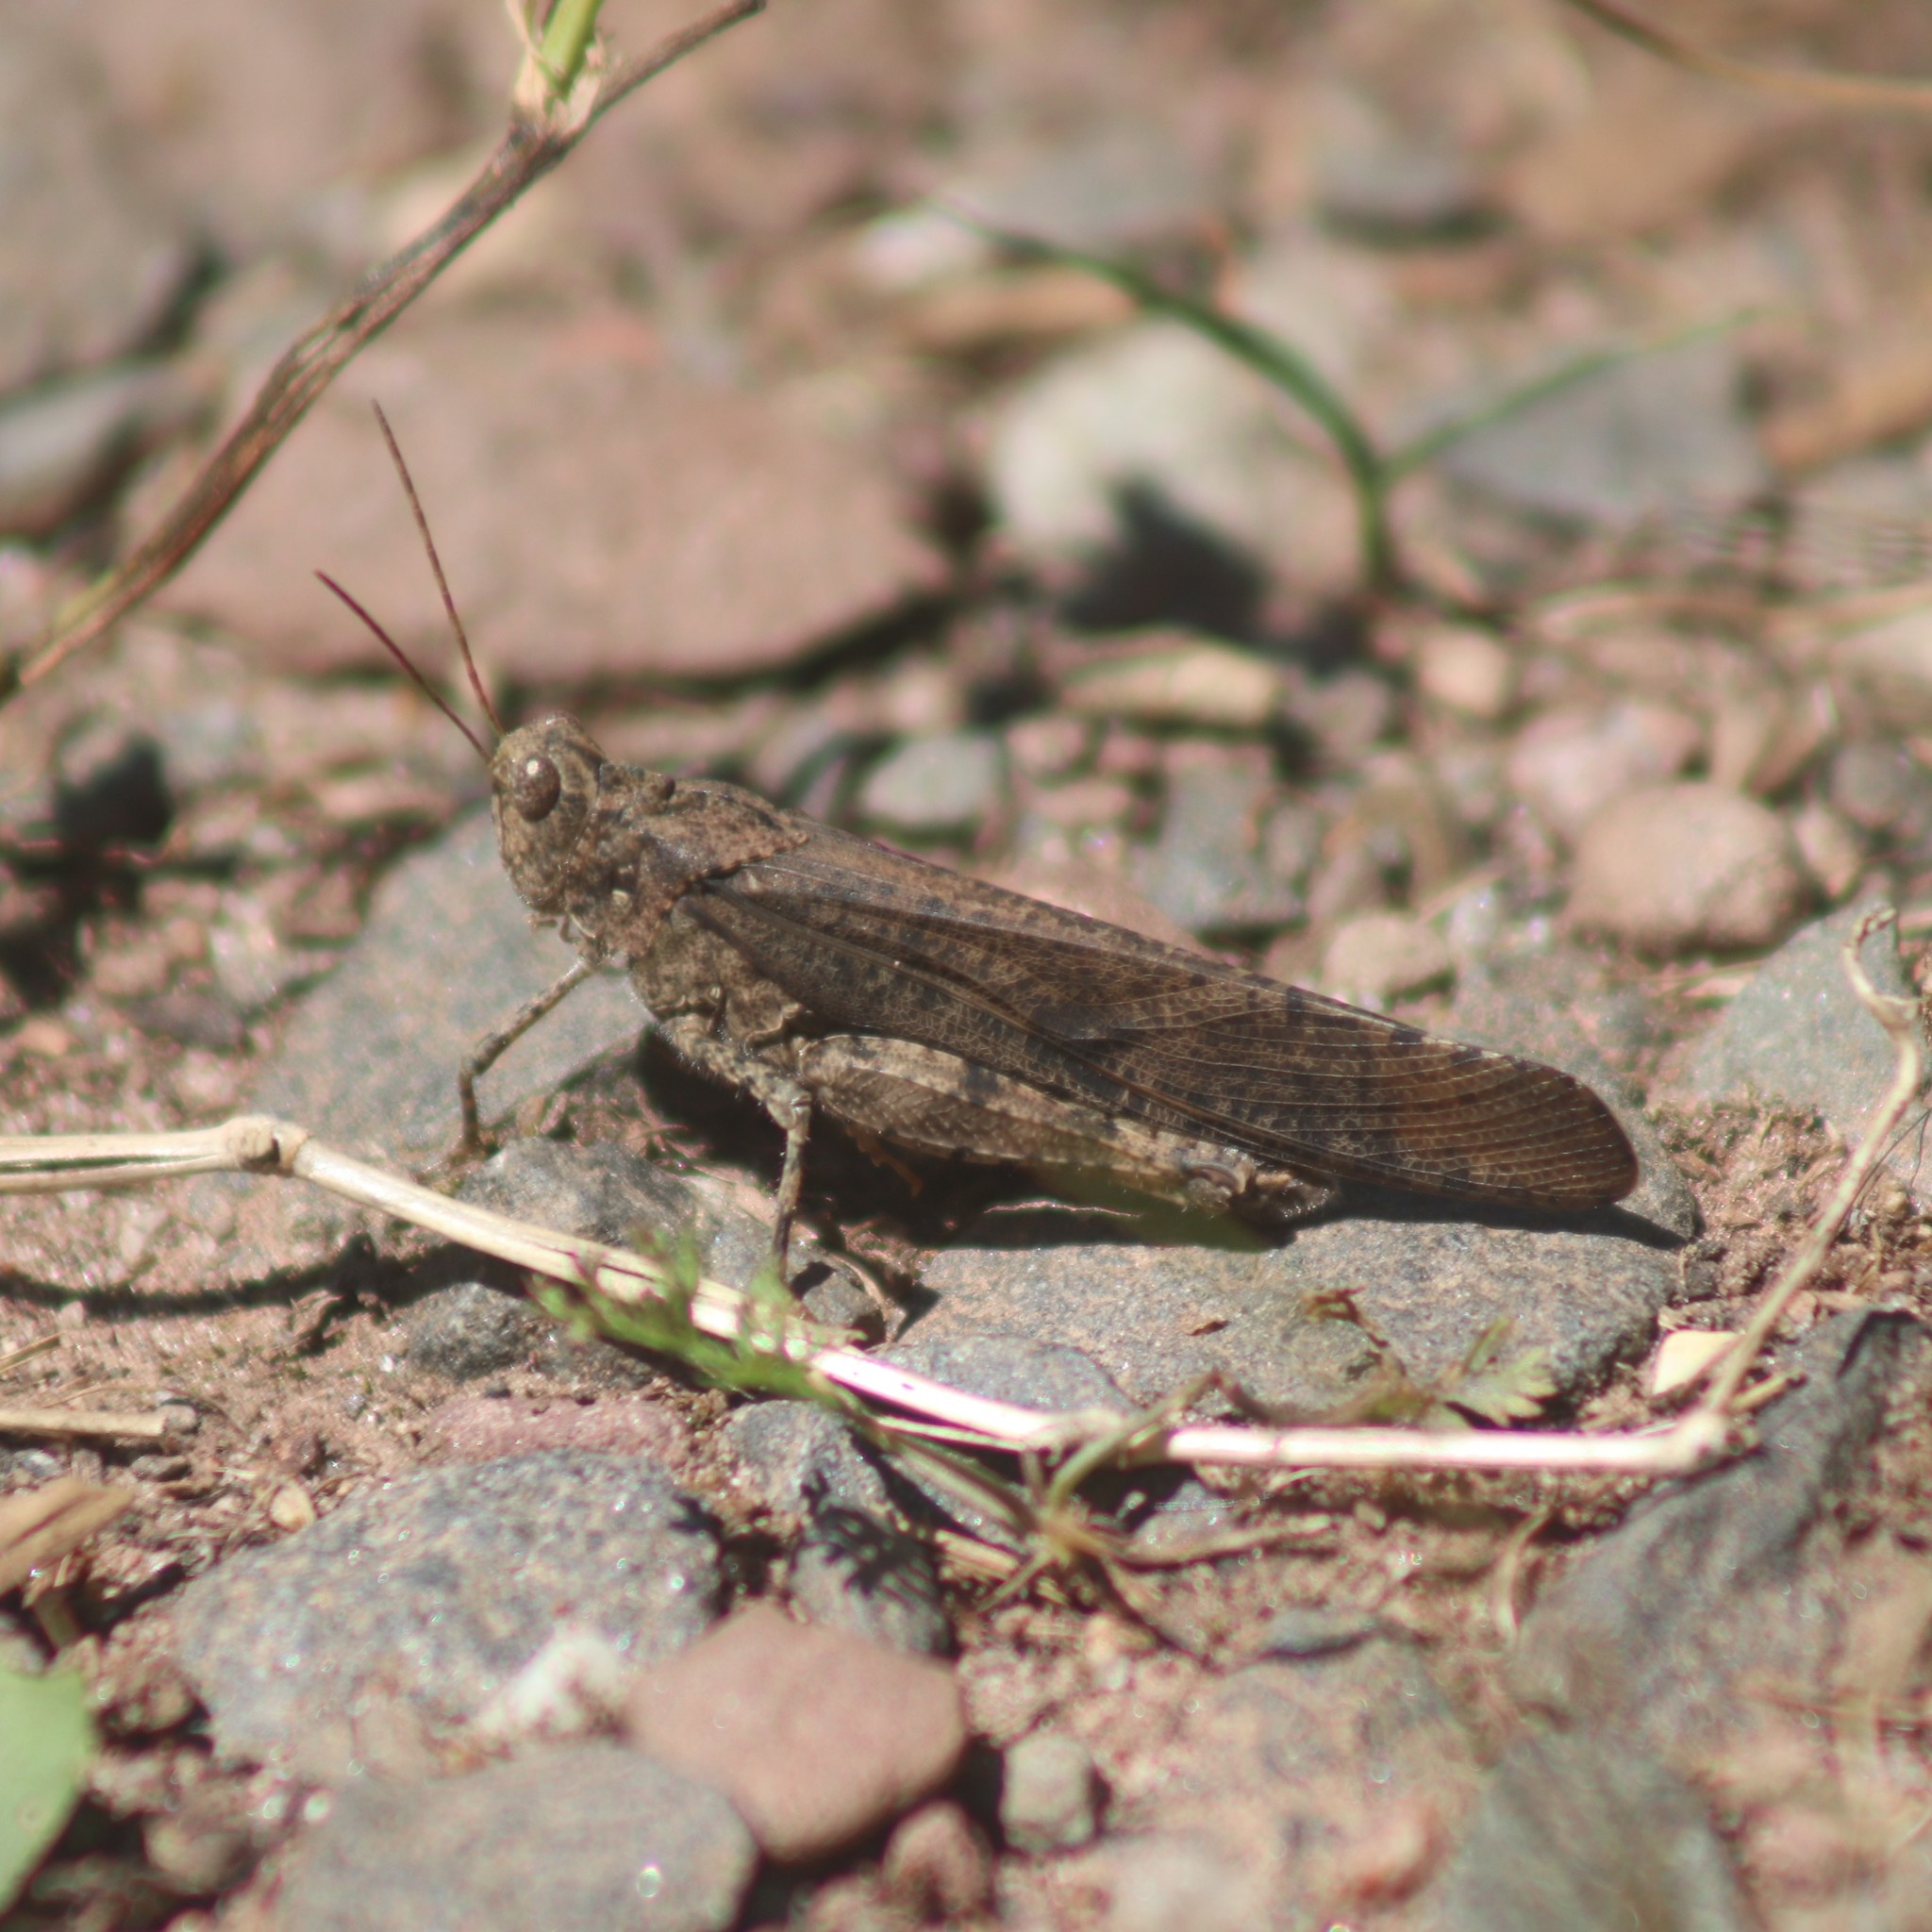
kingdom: Animalia
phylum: Arthropoda
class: Insecta
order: Orthoptera
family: Acrididae
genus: Dissosteira
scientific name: Dissosteira carolina
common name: Carolina grasshopper
